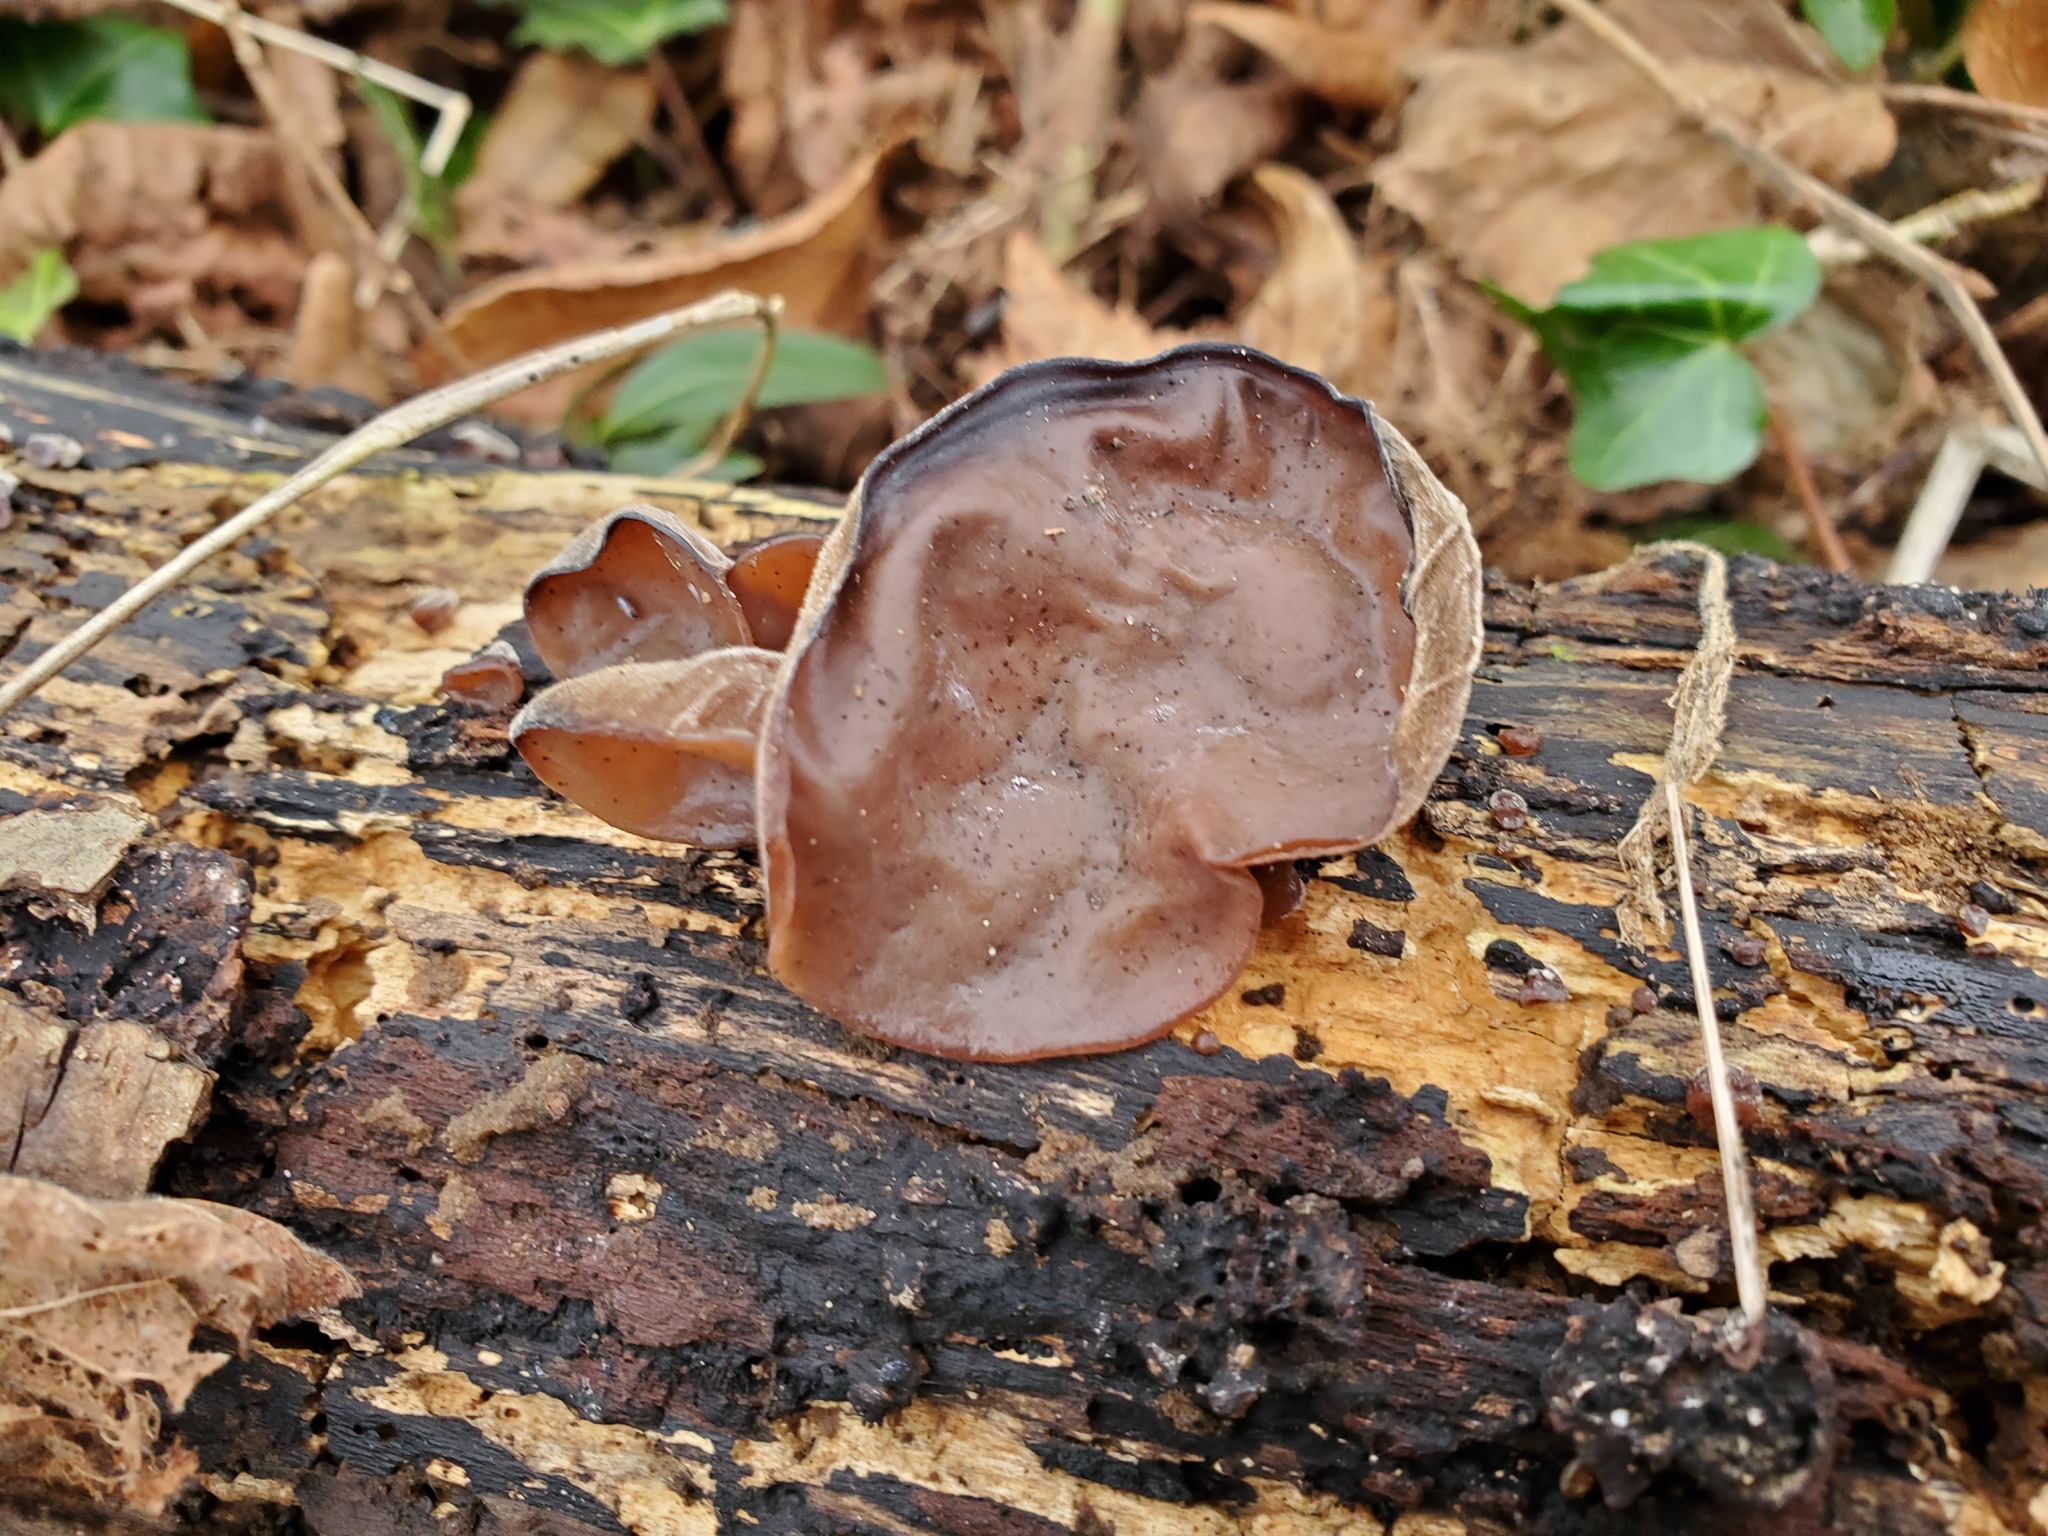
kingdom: Fungi
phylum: Basidiomycota
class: Agaricomycetes
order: Auriculariales
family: Auriculariaceae
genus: Auricularia
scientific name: Auricularia auricula-judae
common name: Jelly ear
